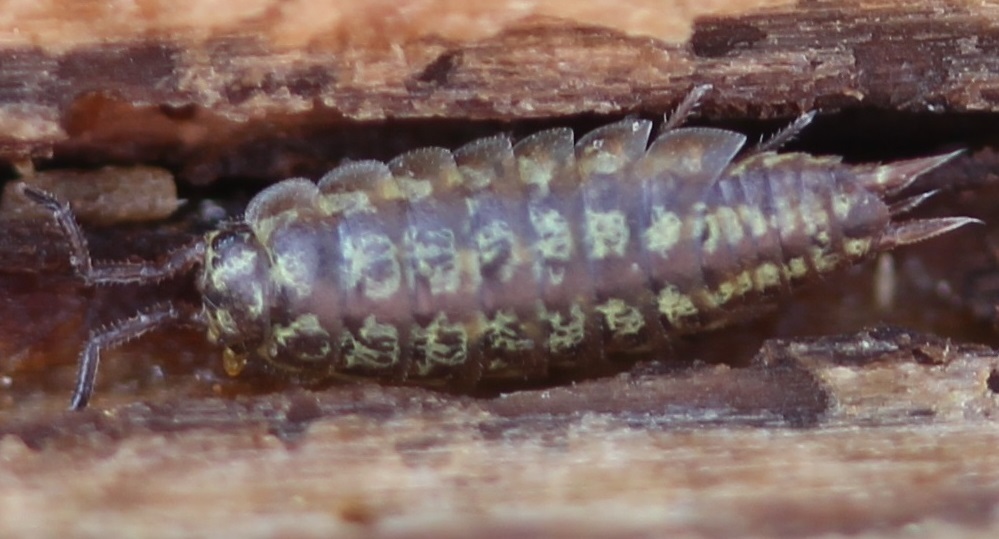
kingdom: Animalia
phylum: Arthropoda
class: Malacostraca
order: Isopoda
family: Halophilosciidae
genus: Littorophiloscia
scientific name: Littorophiloscia vittata
